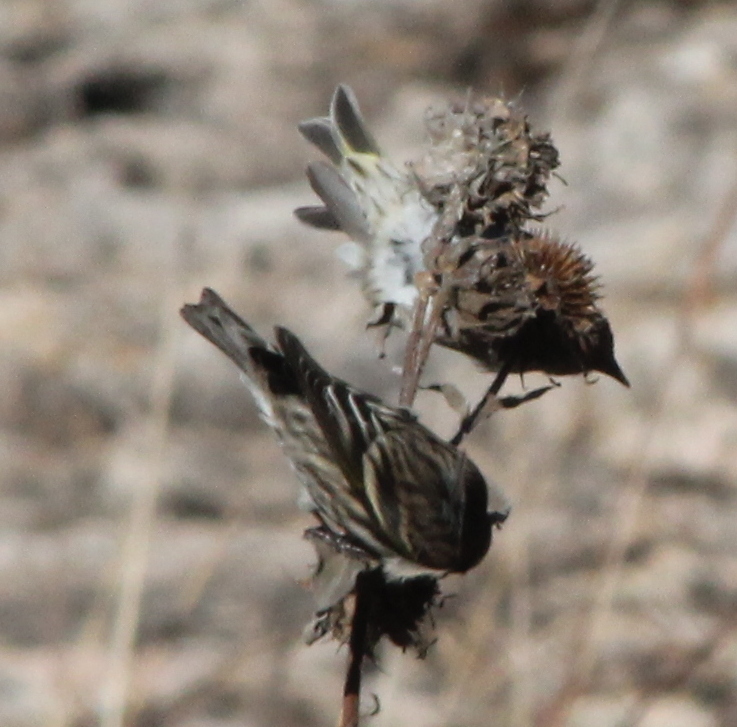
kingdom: Animalia
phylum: Chordata
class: Aves
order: Passeriformes
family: Fringillidae
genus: Spinus
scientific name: Spinus pinus
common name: Pine siskin
